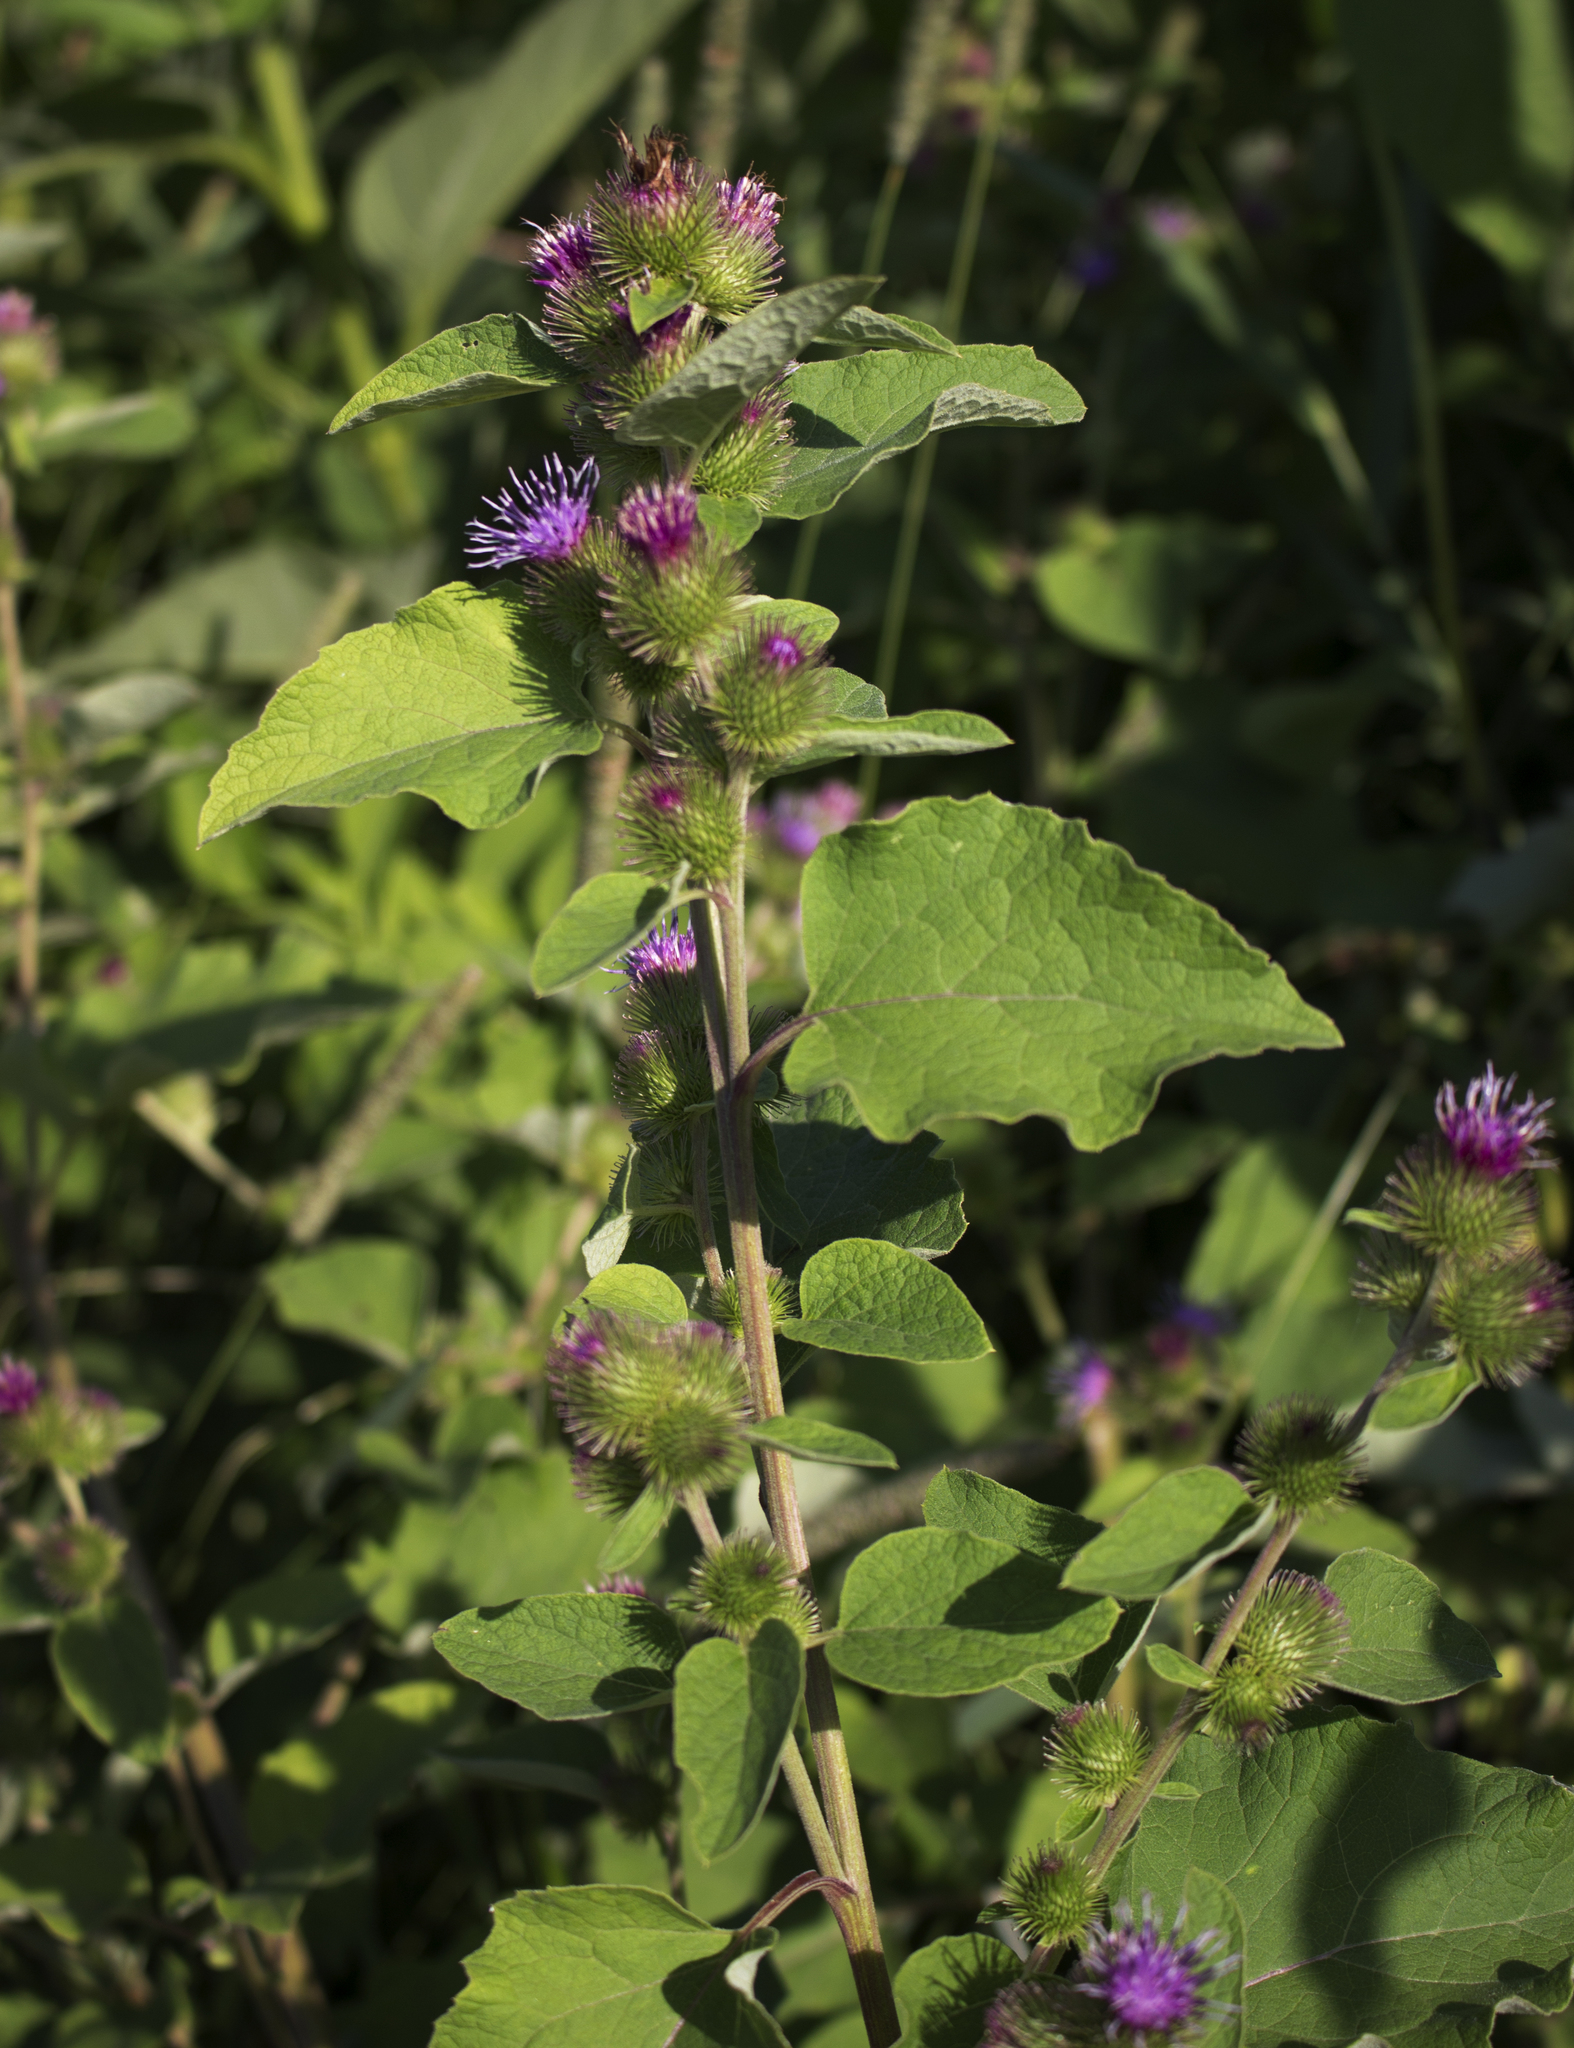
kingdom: Plantae
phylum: Tracheophyta
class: Magnoliopsida
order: Asterales
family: Asteraceae
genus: Arctium
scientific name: Arctium minus
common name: Lesser burdock
